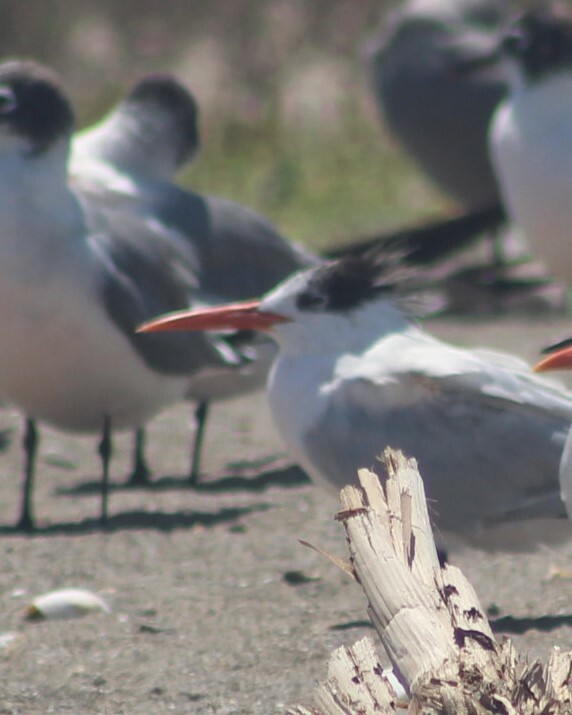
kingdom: Animalia
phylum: Chordata
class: Aves
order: Charadriiformes
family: Laridae
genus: Thalasseus
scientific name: Thalasseus elegans
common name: Elegant tern
